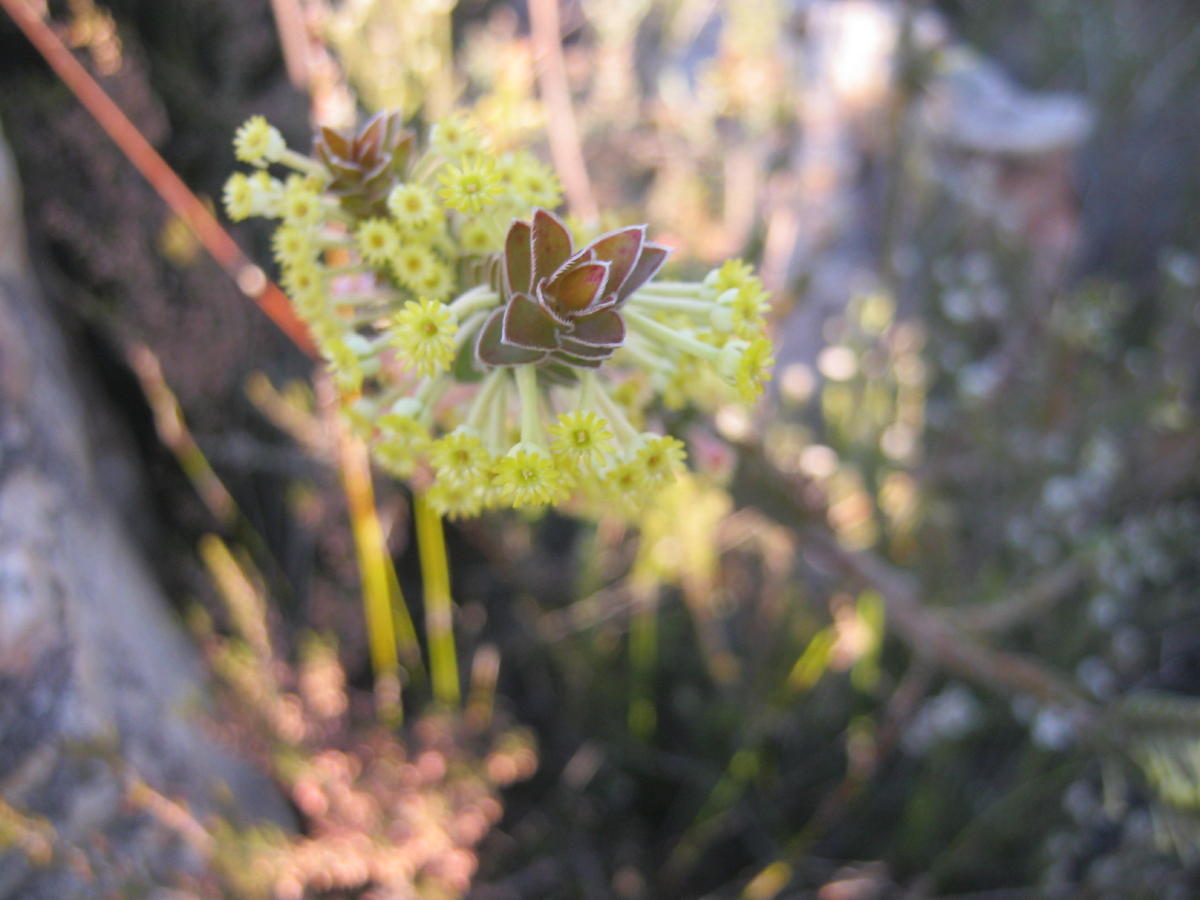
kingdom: Plantae
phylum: Tracheophyta
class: Magnoliopsida
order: Malvales
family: Thymelaeaceae
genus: Struthiola
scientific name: Struthiola argentea
